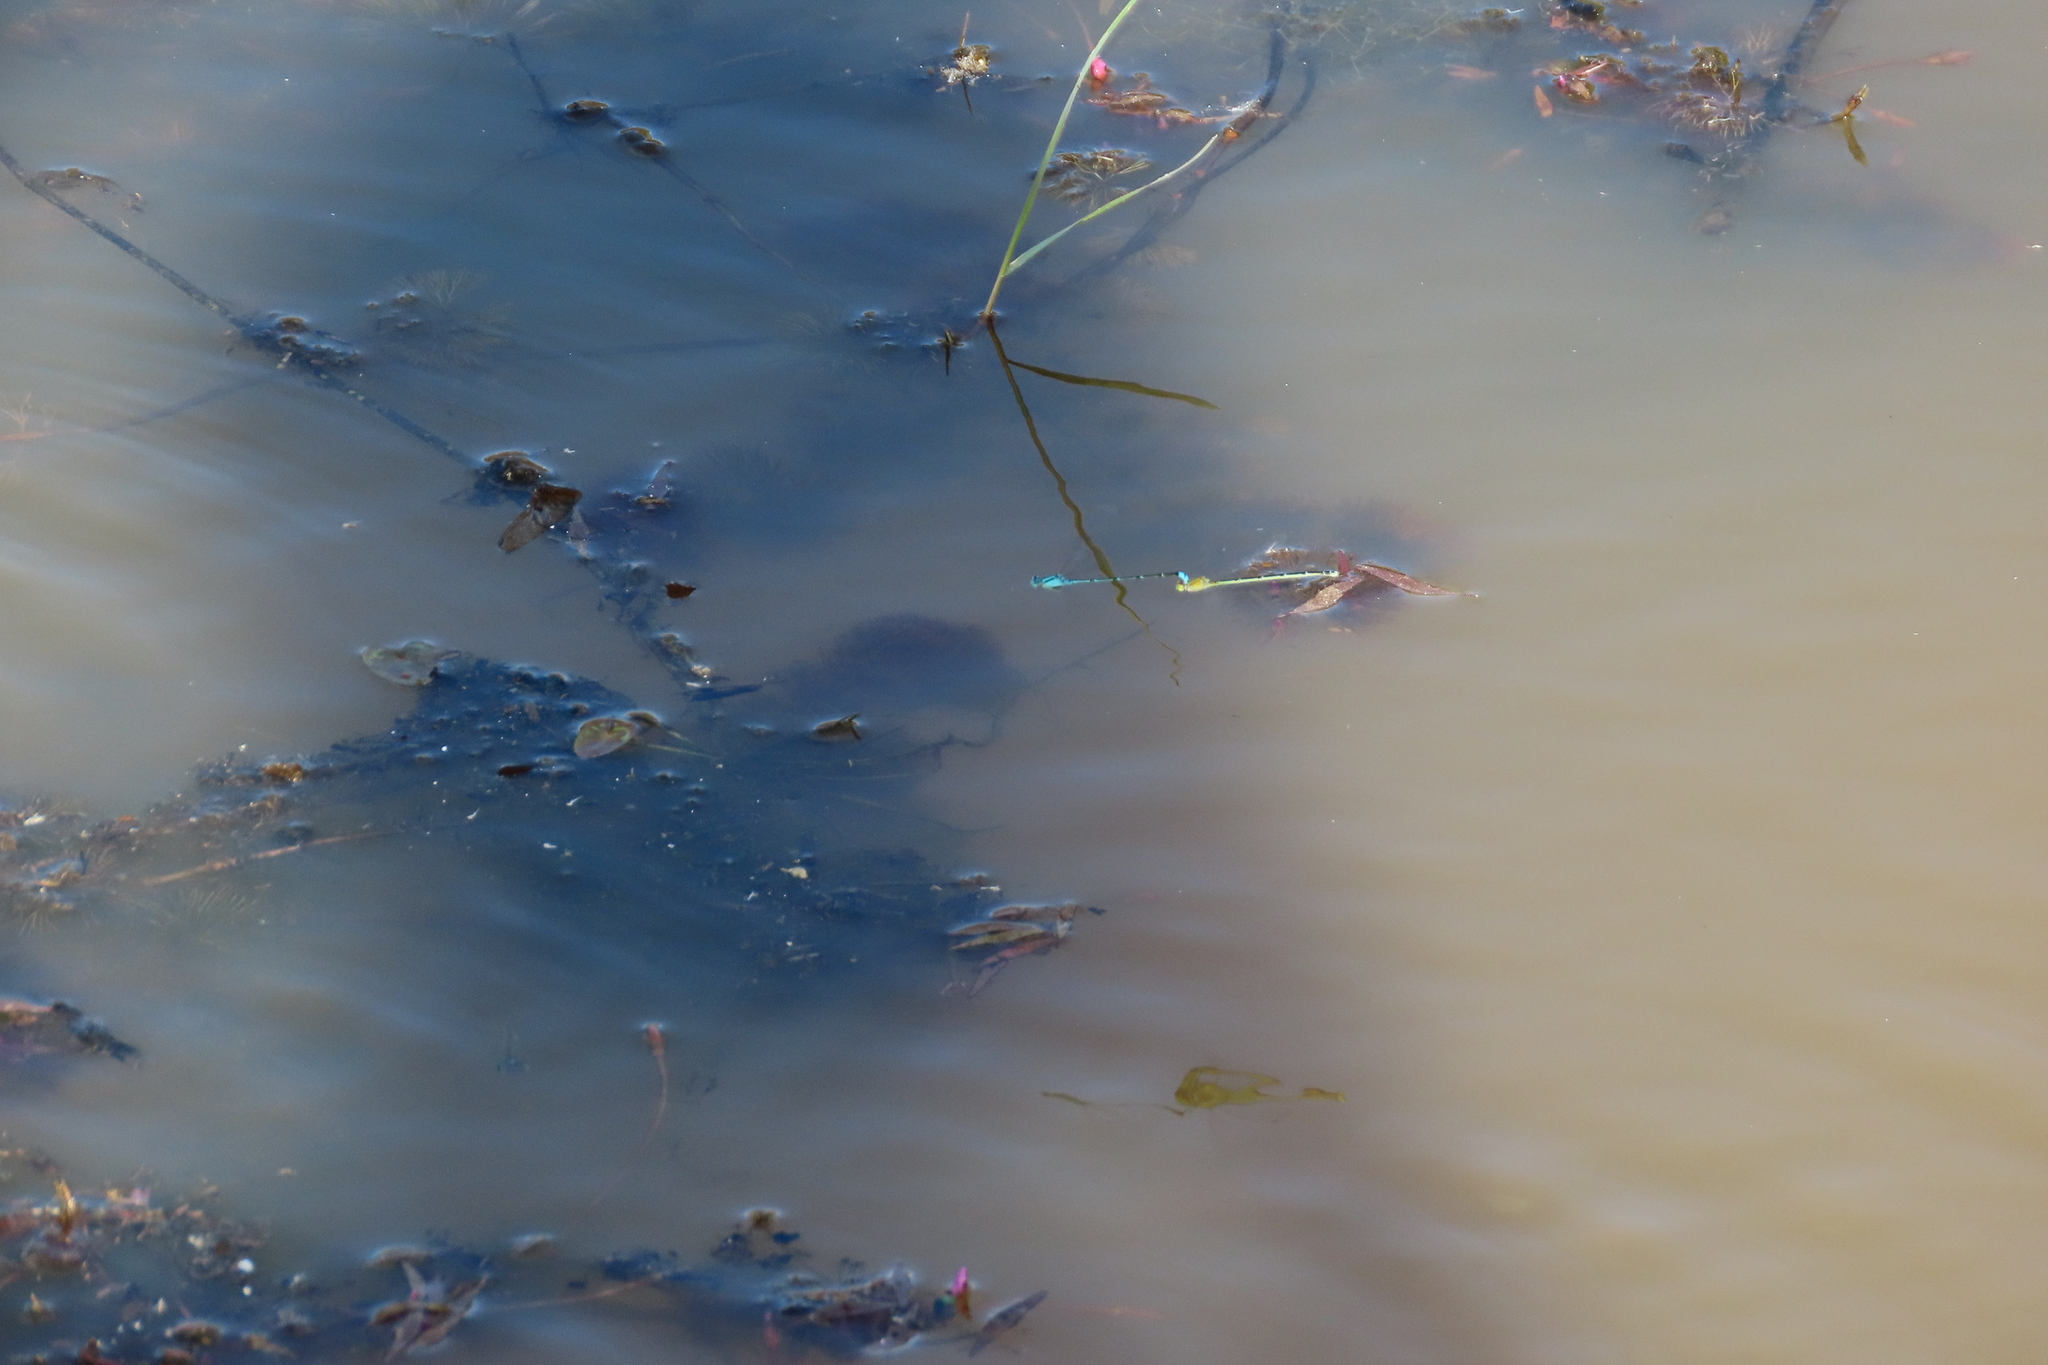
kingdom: Animalia
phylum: Arthropoda
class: Insecta
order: Odonata
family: Coenagrionidae
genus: Pseudagrion
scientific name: Pseudagrion microcephalum
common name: Blue riverdamsel
